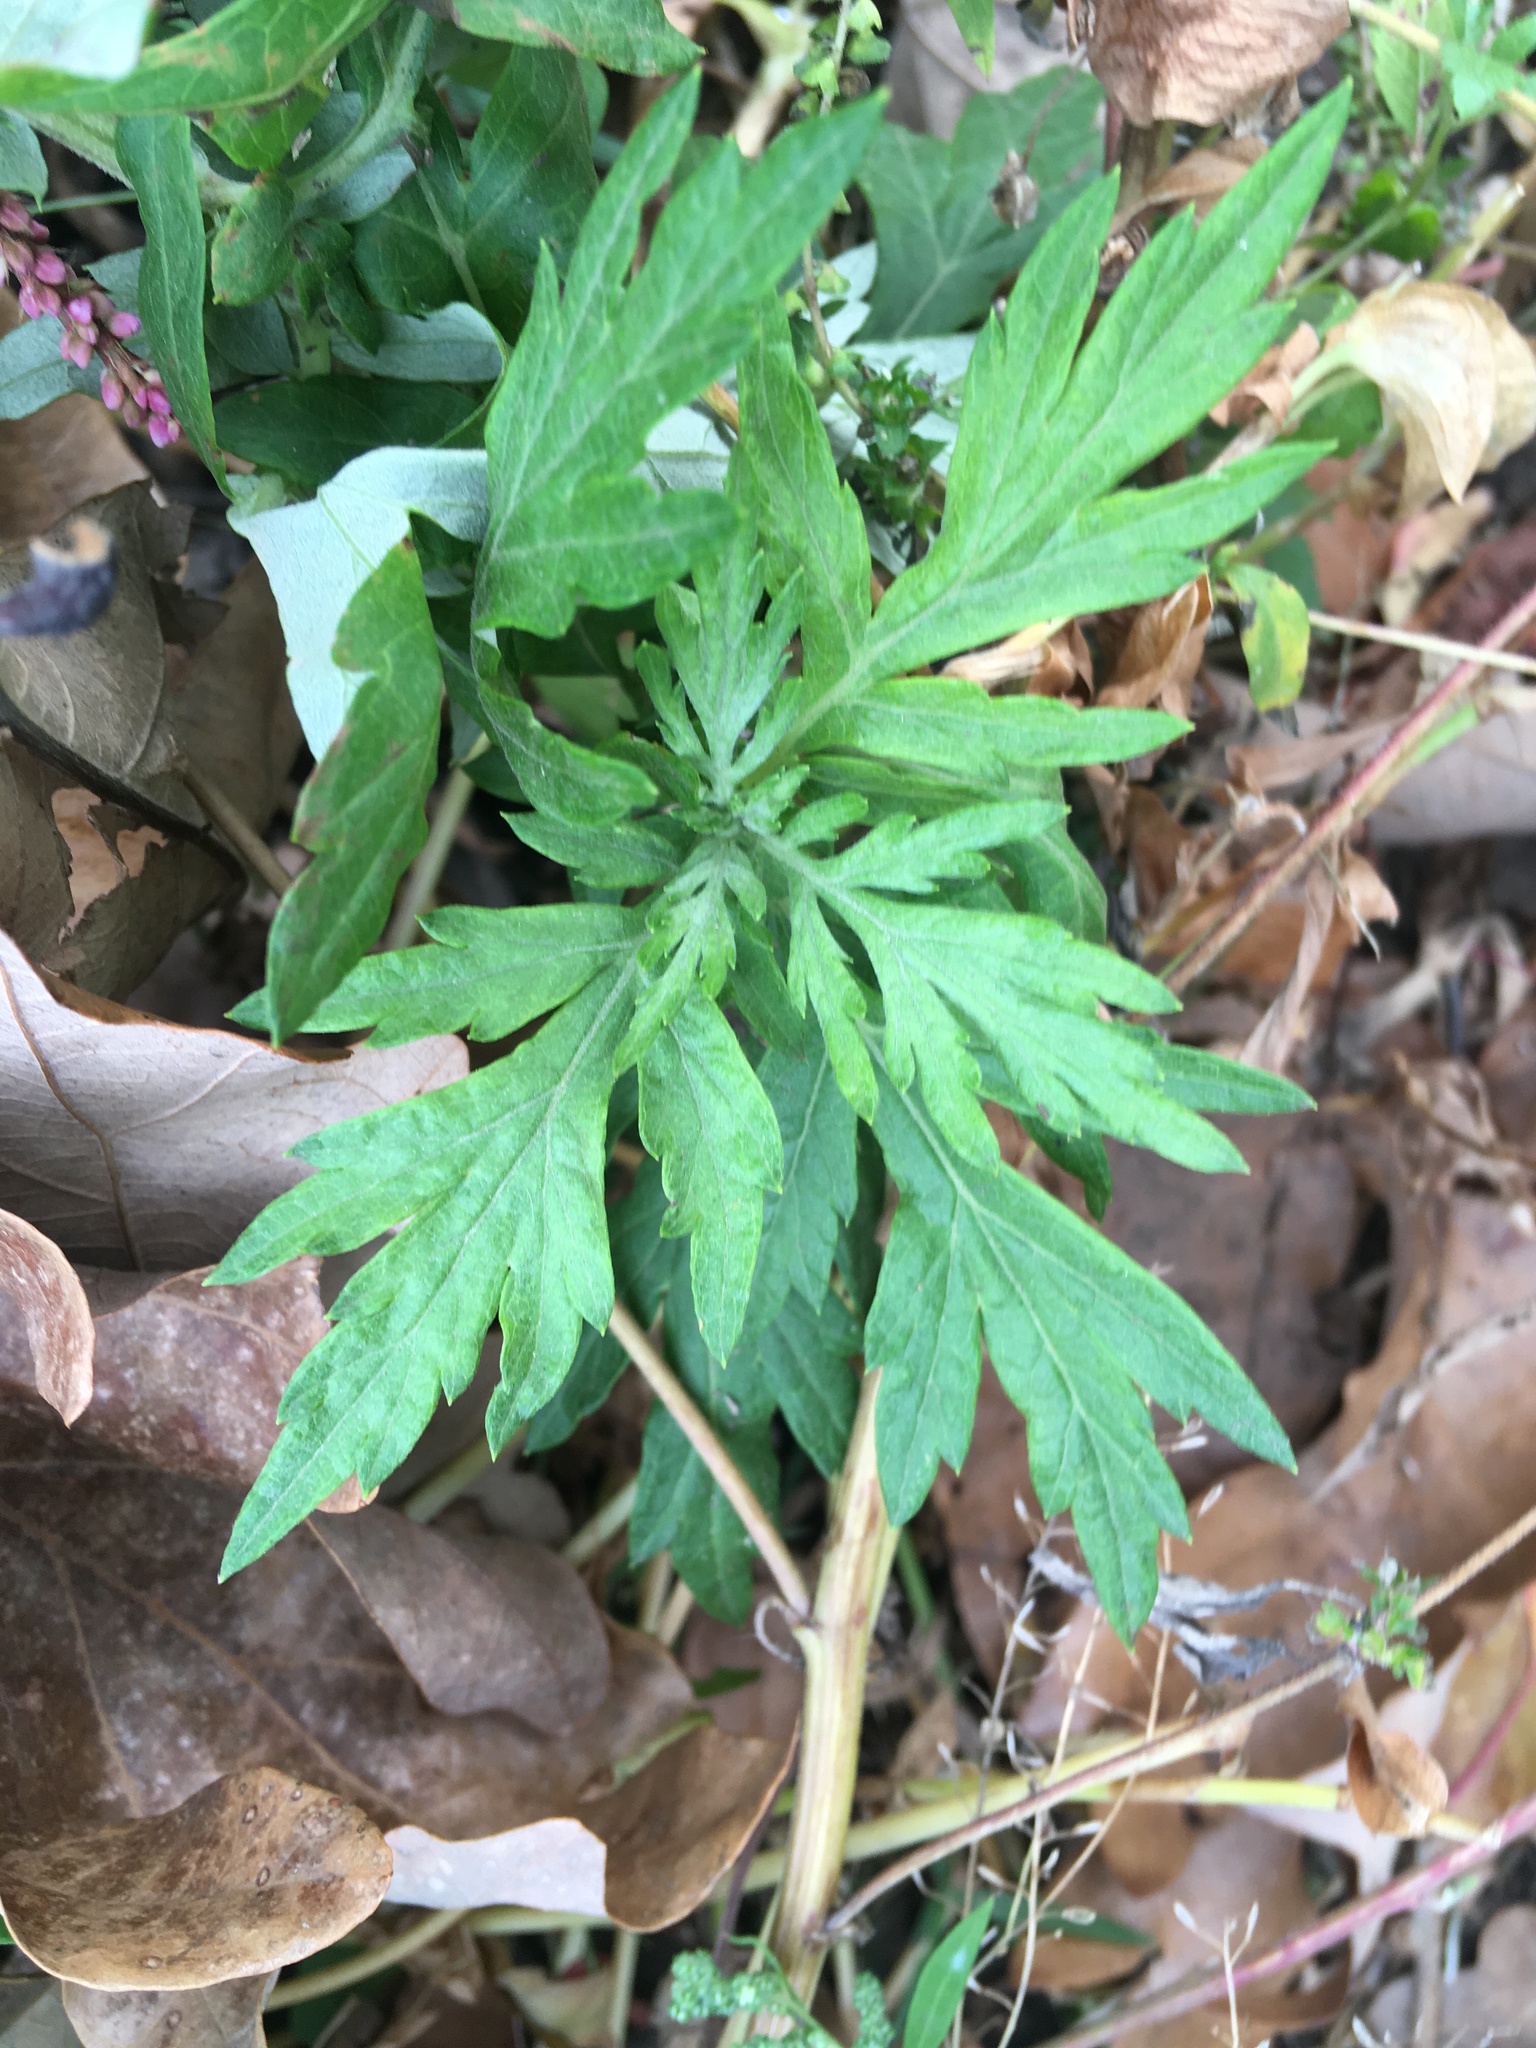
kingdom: Plantae
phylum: Tracheophyta
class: Magnoliopsida
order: Asterales
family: Asteraceae
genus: Artemisia
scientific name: Artemisia vulgaris
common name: Mugwort
